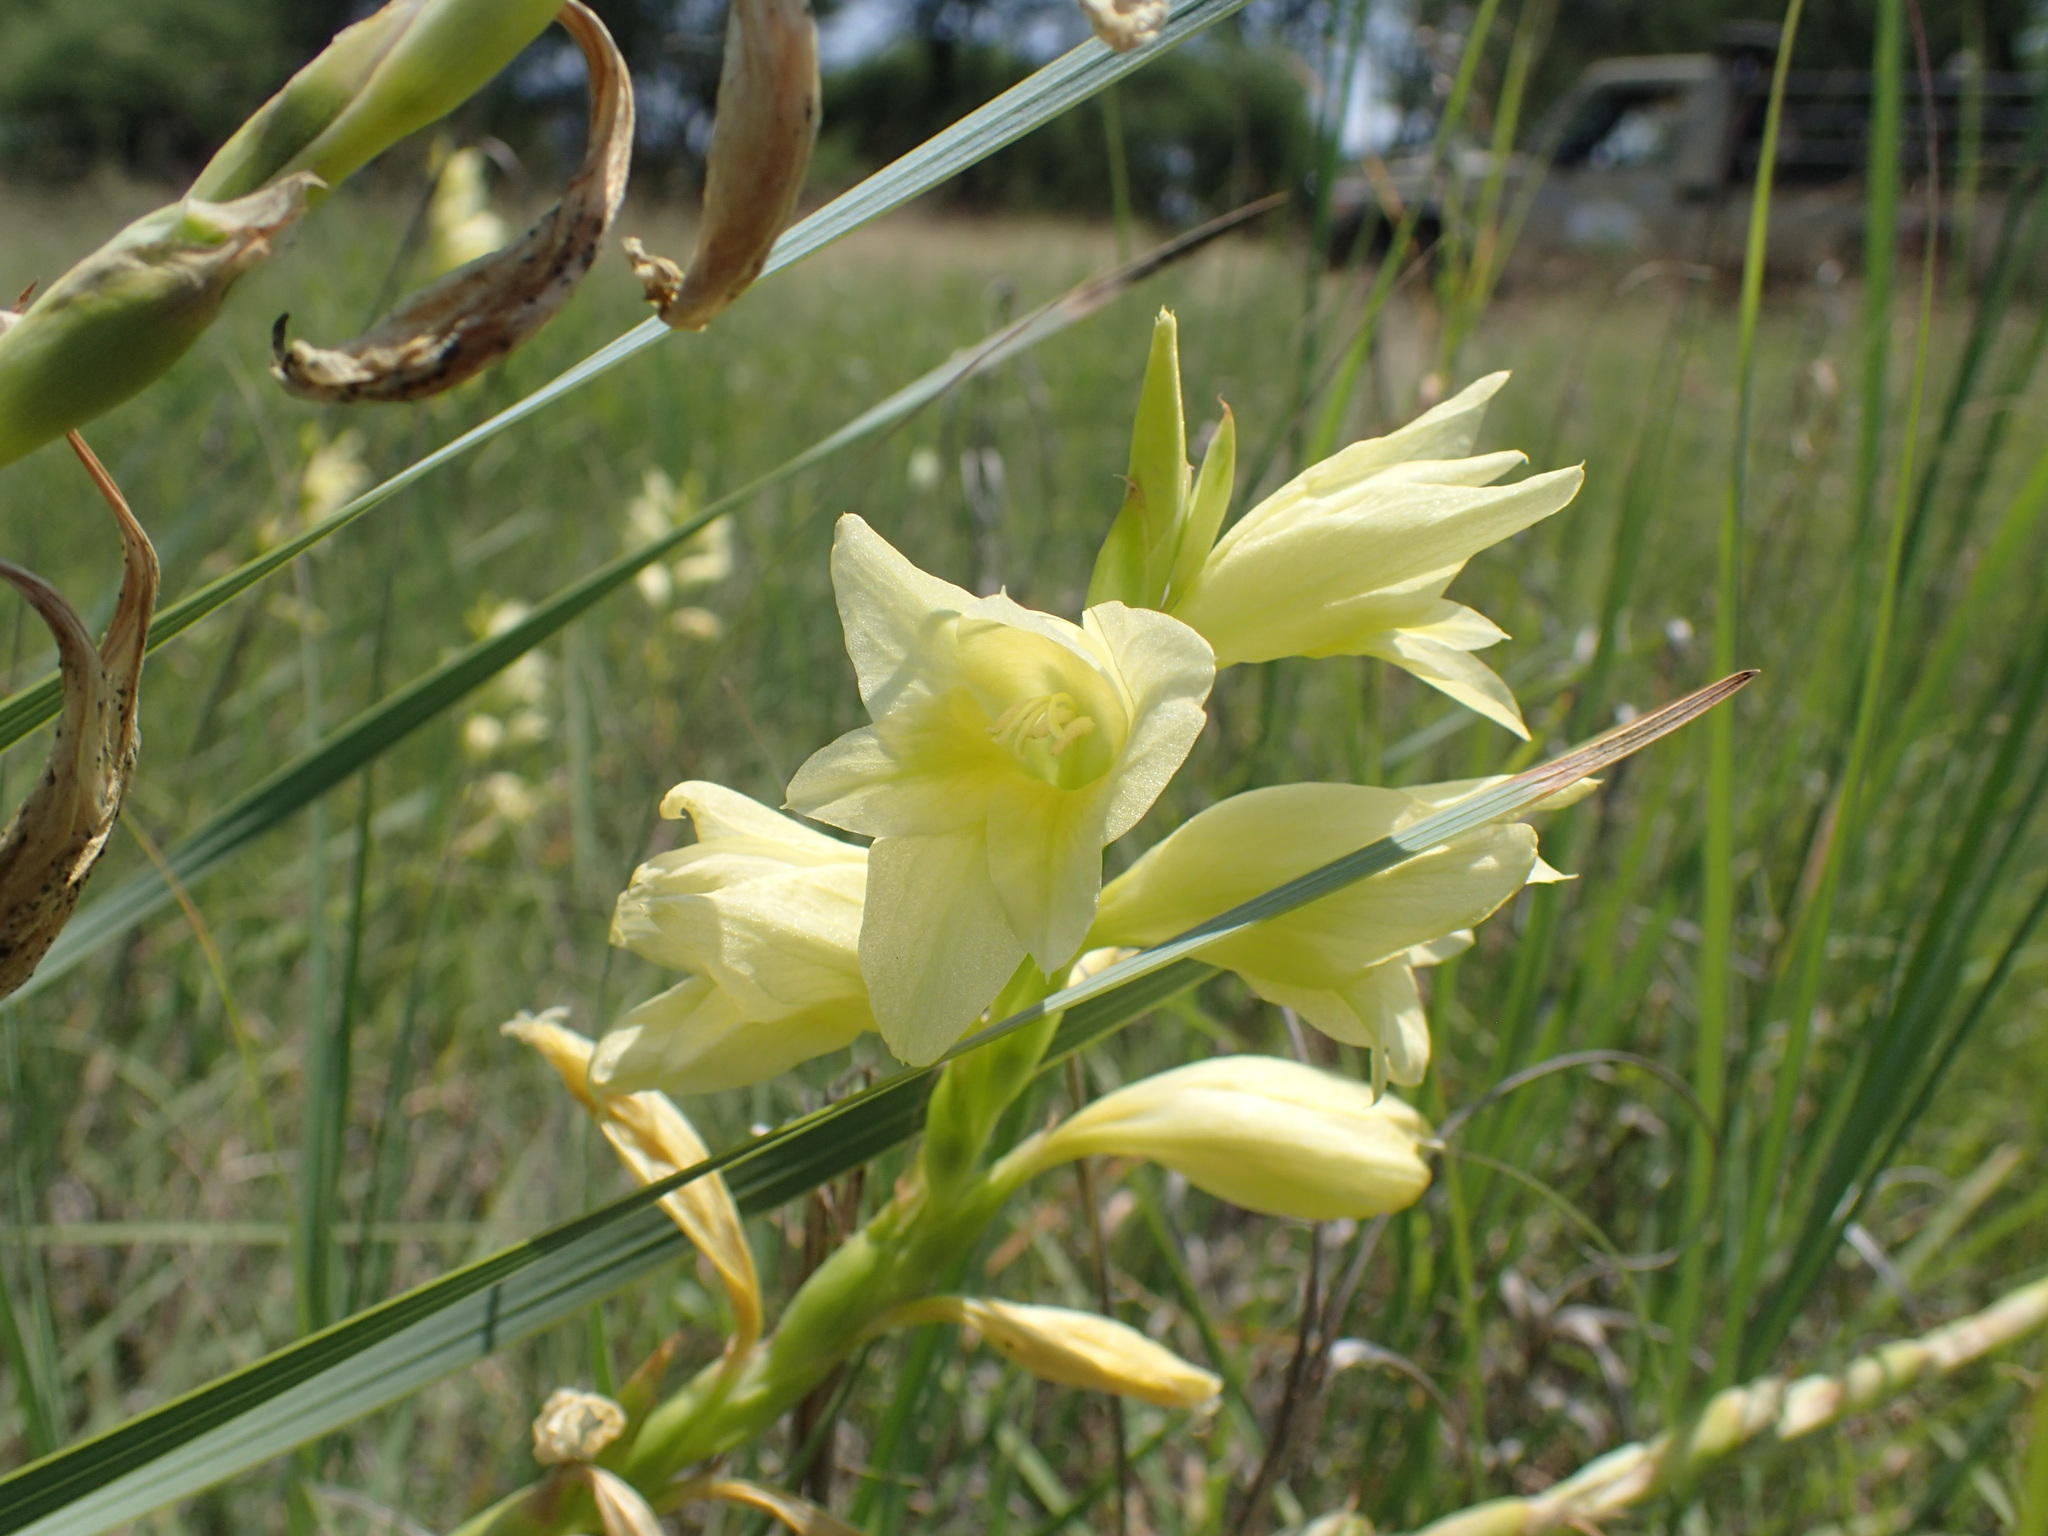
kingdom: Plantae
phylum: Tracheophyta
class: Liliopsida
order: Asparagales
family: Iridaceae
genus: Gladiolus
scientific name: Gladiolus sericeovillosus
